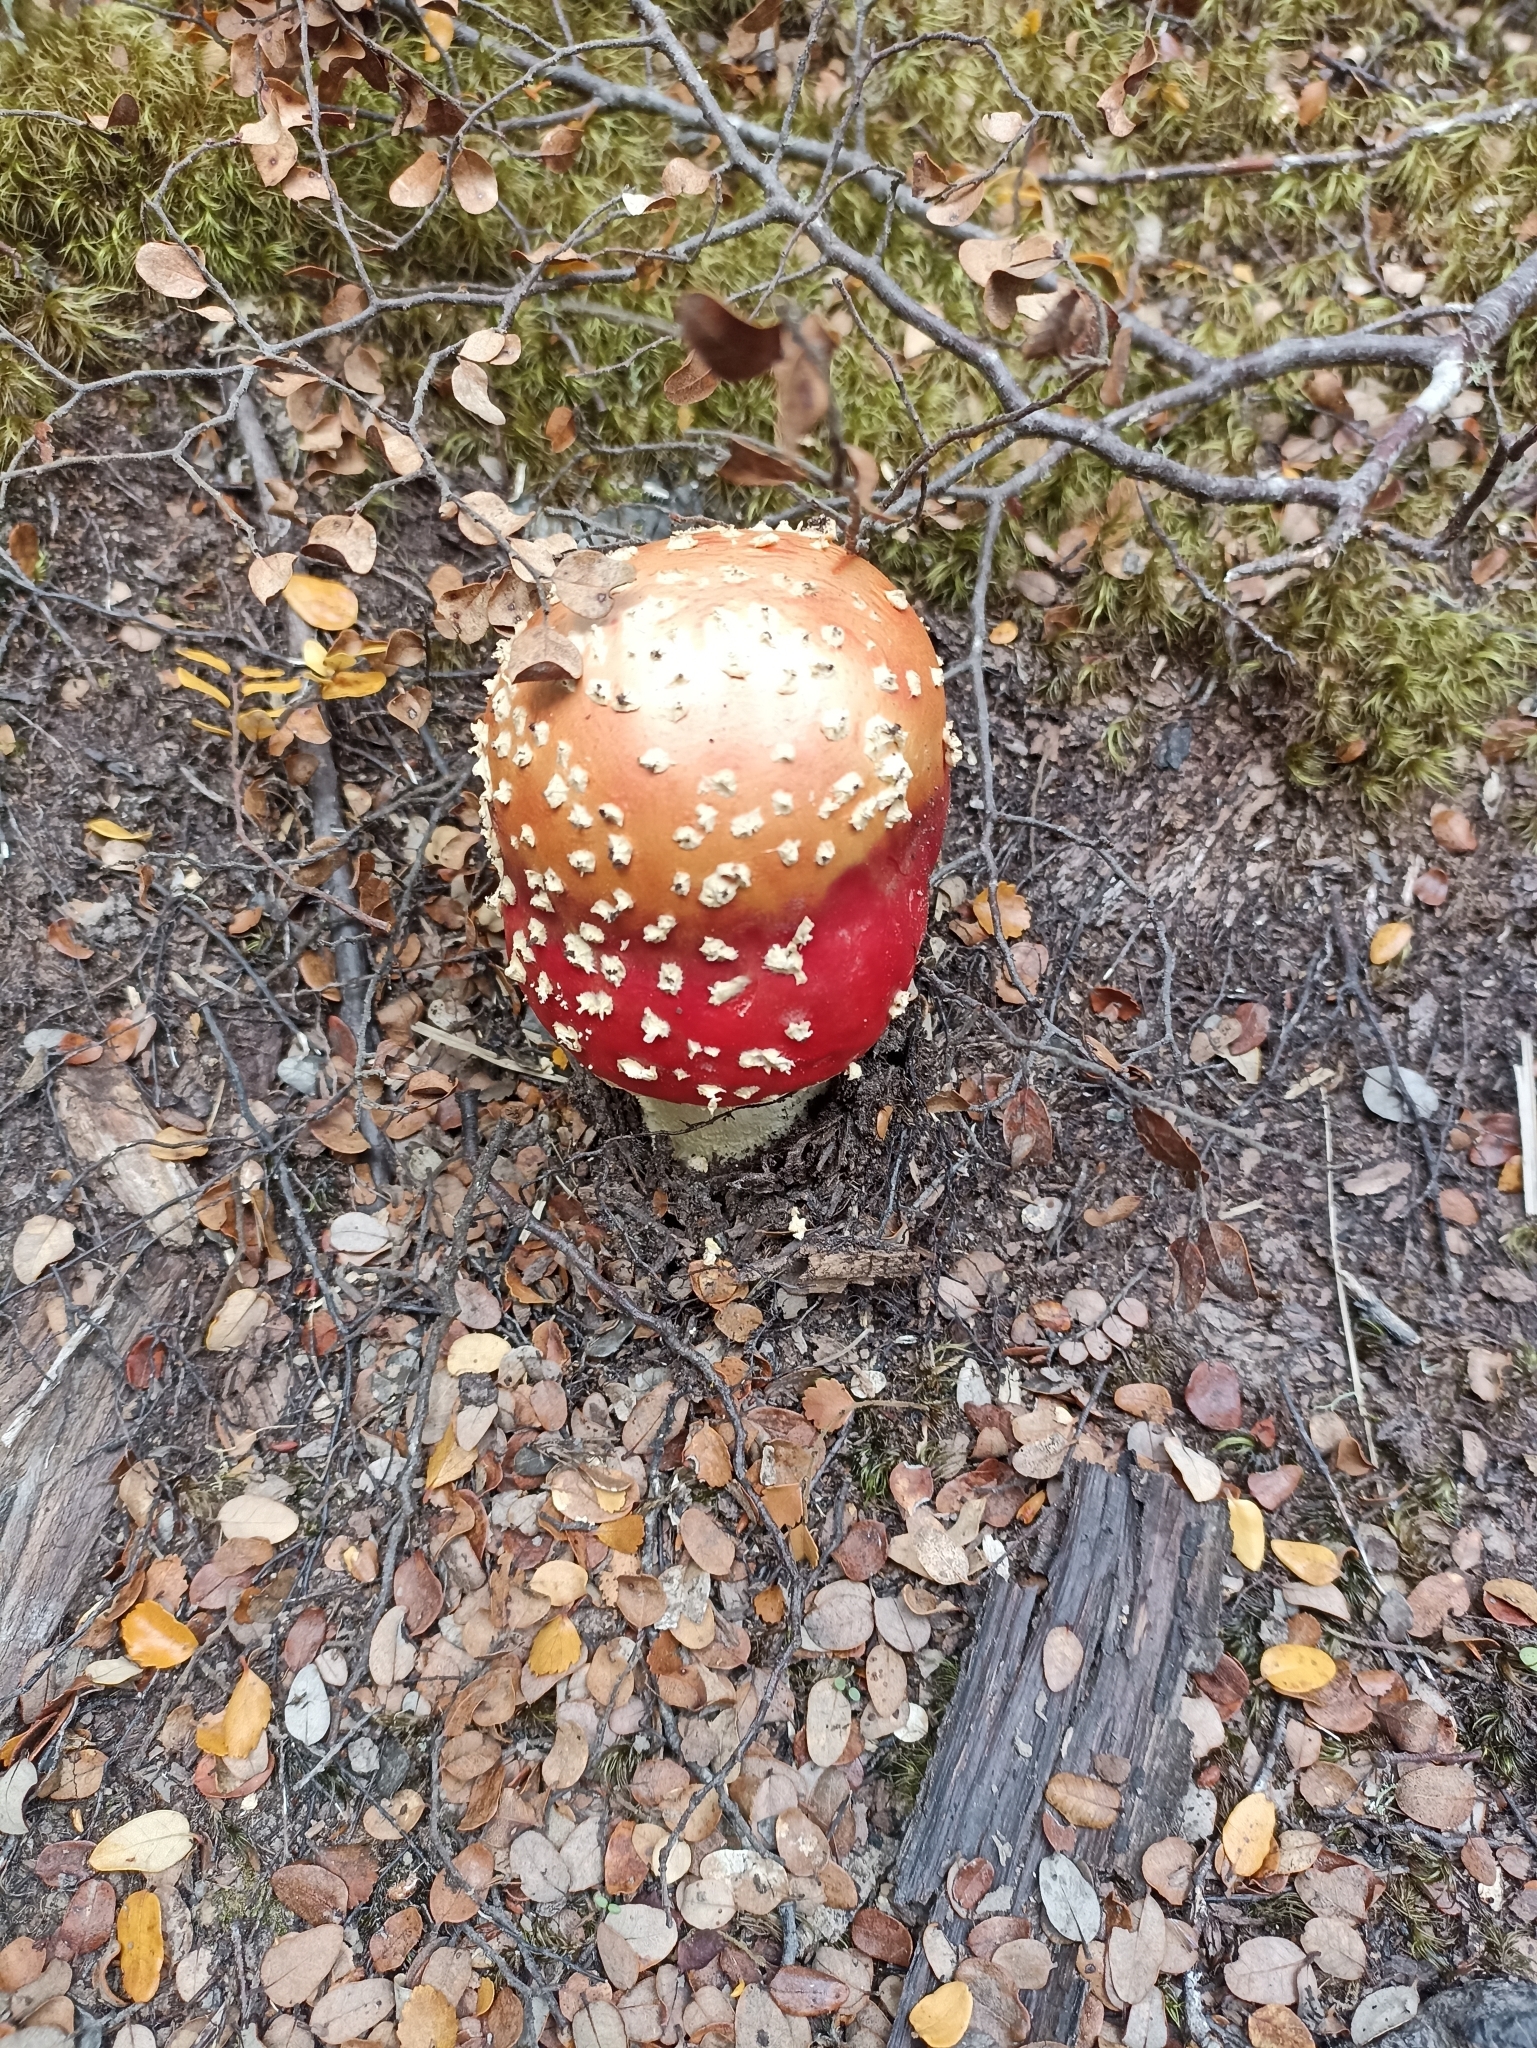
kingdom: Fungi
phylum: Basidiomycota
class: Agaricomycetes
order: Agaricales
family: Amanitaceae
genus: Amanita
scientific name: Amanita muscaria
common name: Fly agaric
